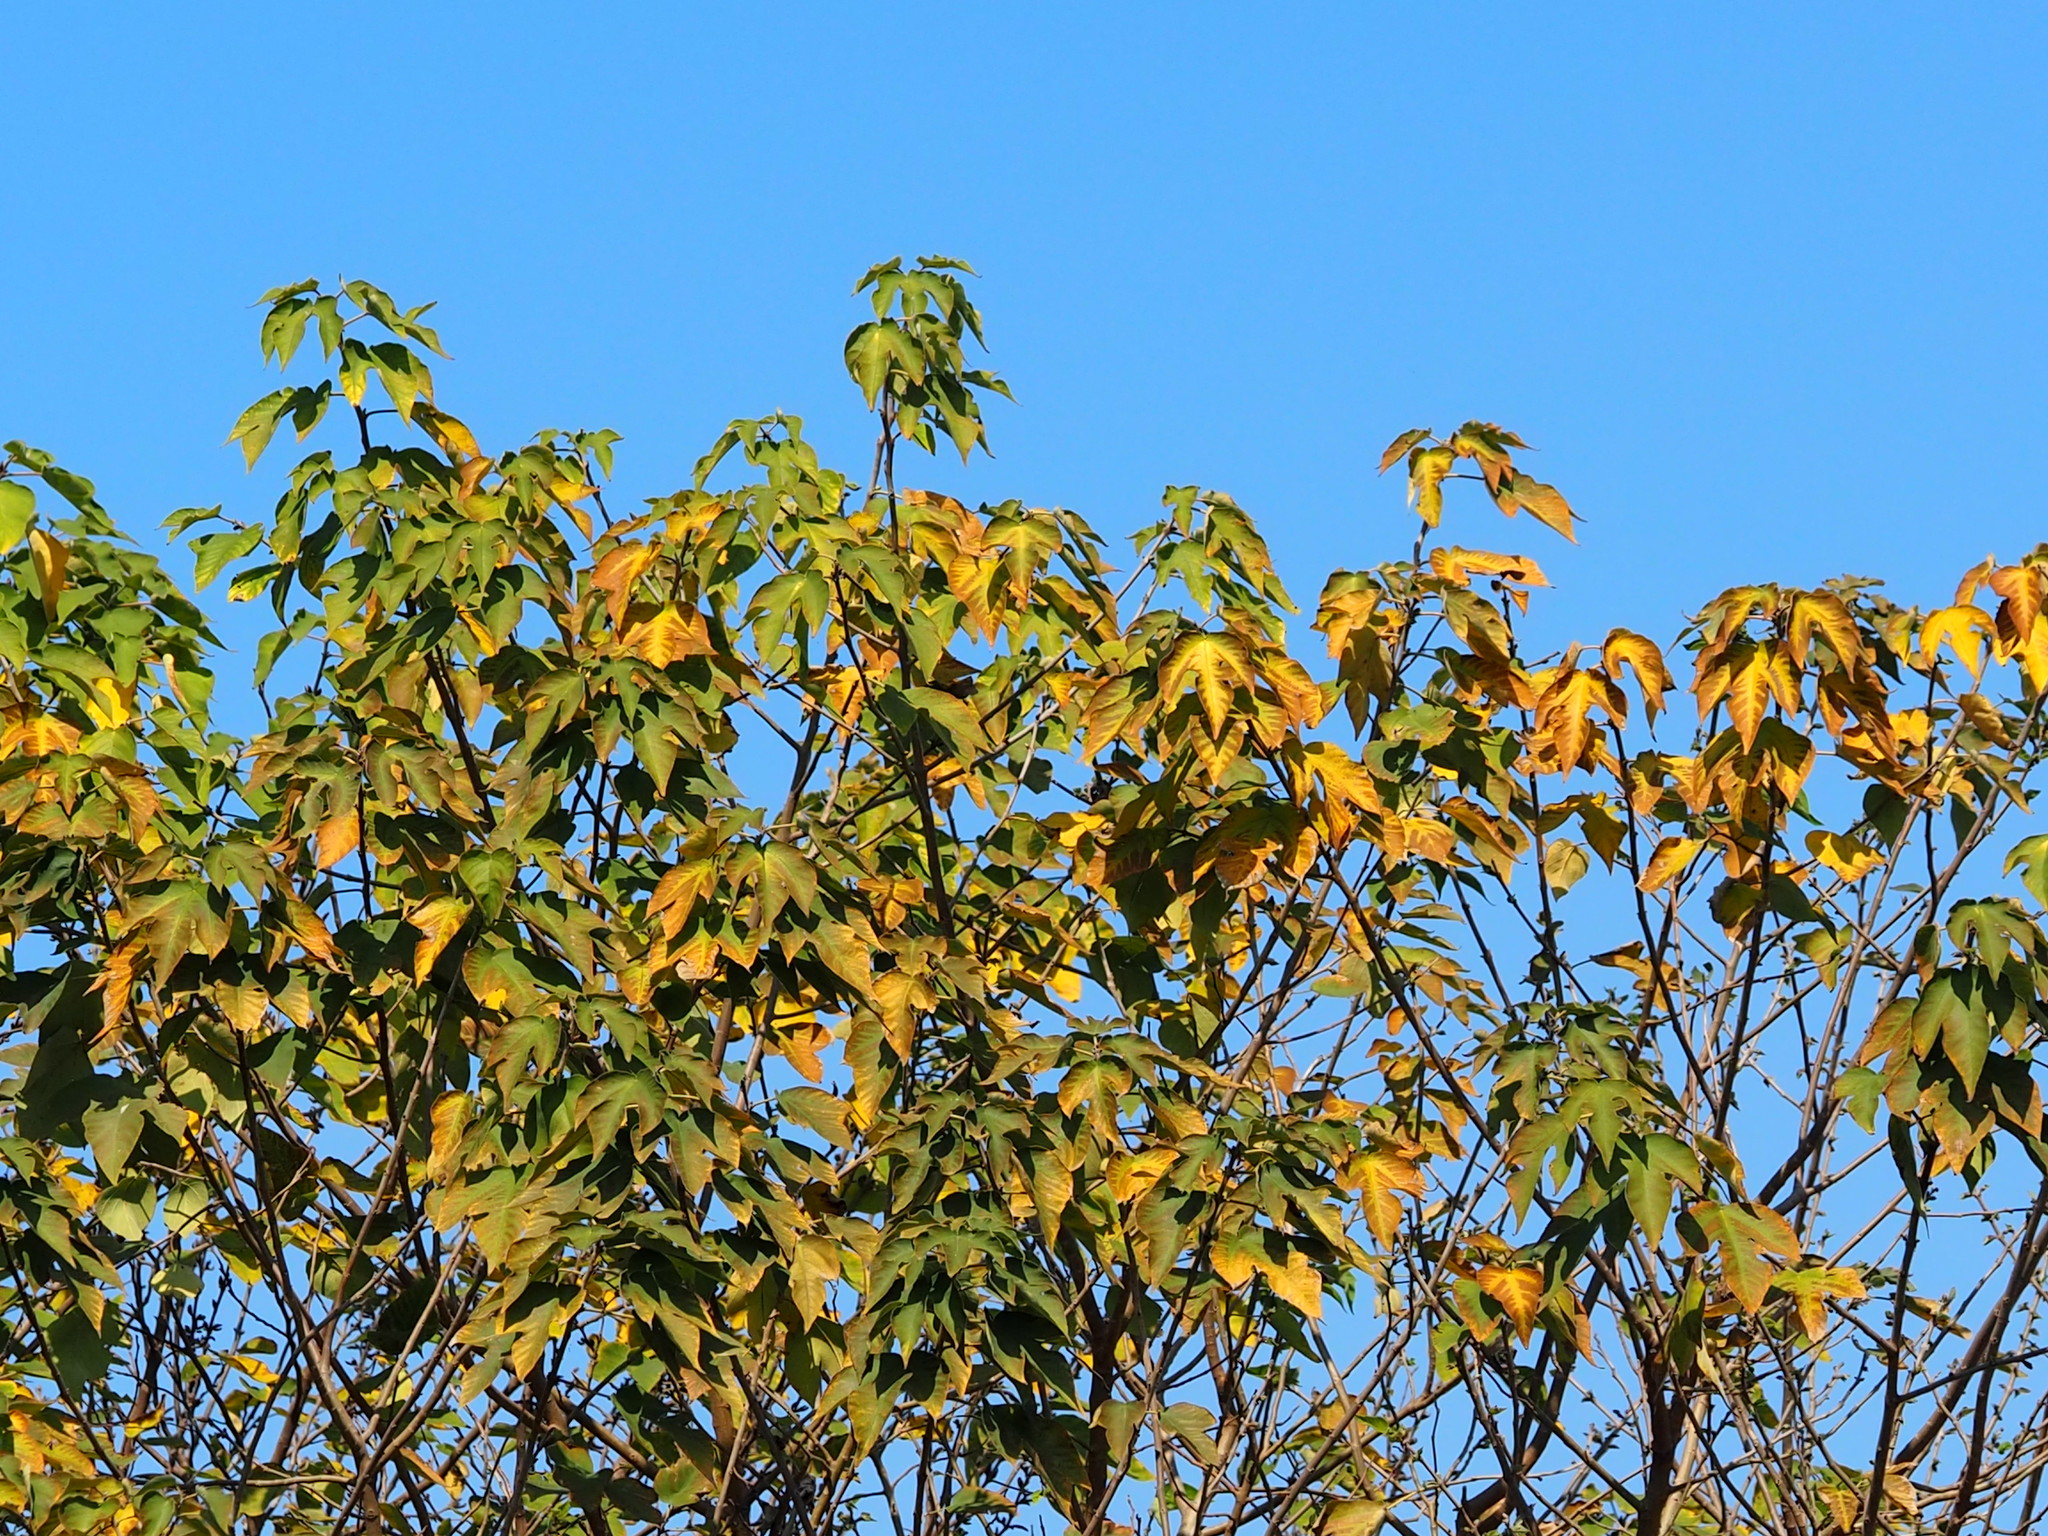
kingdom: Plantae
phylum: Tracheophyta
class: Magnoliopsida
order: Rosales
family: Moraceae
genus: Broussonetia
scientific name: Broussonetia papyrifera
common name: Paper mulberry
